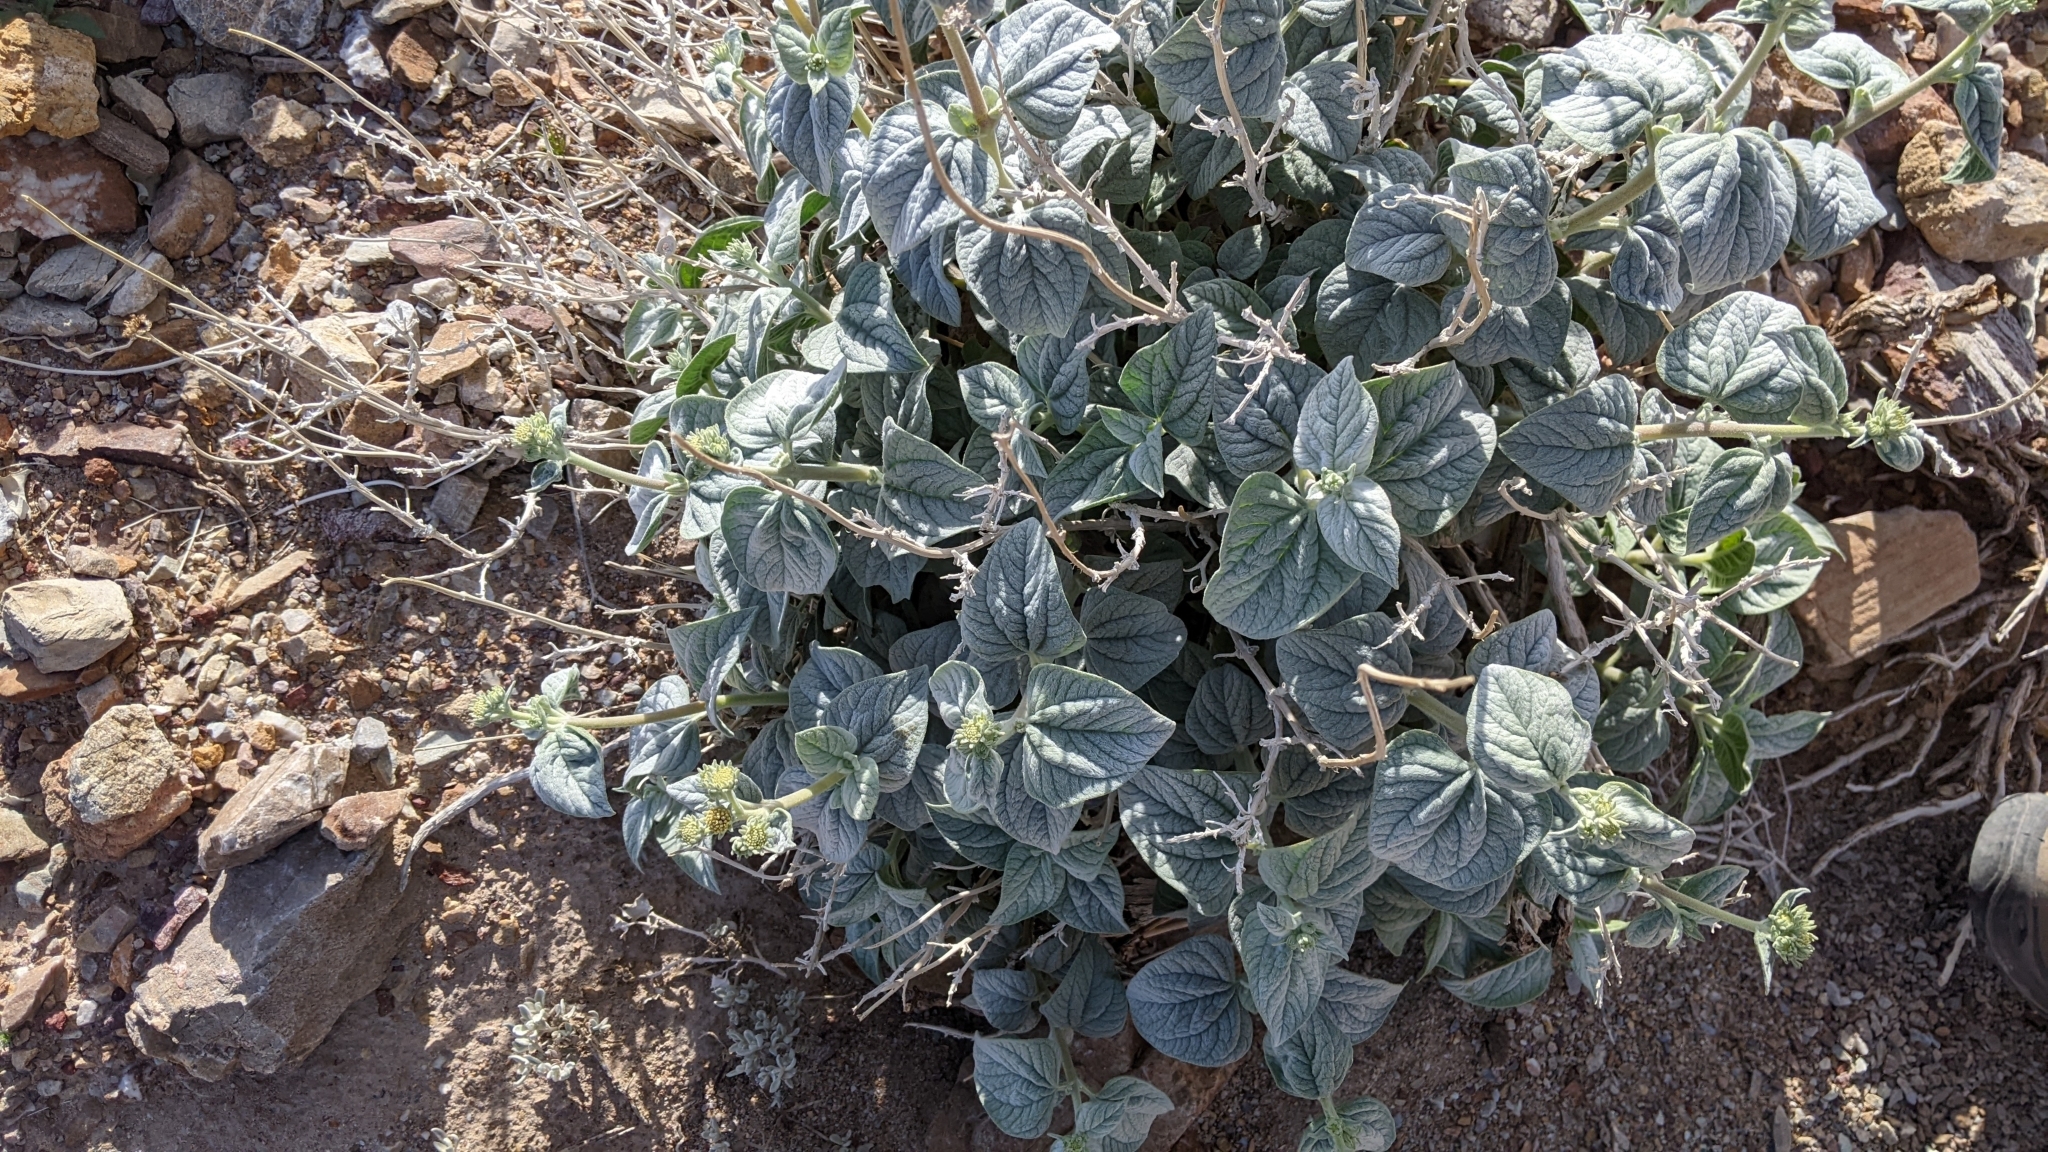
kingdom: Plantae
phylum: Tracheophyta
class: Magnoliopsida
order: Asterales
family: Asteraceae
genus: Bahiopsis
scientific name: Bahiopsis reticulata
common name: Death valley goldeneye
